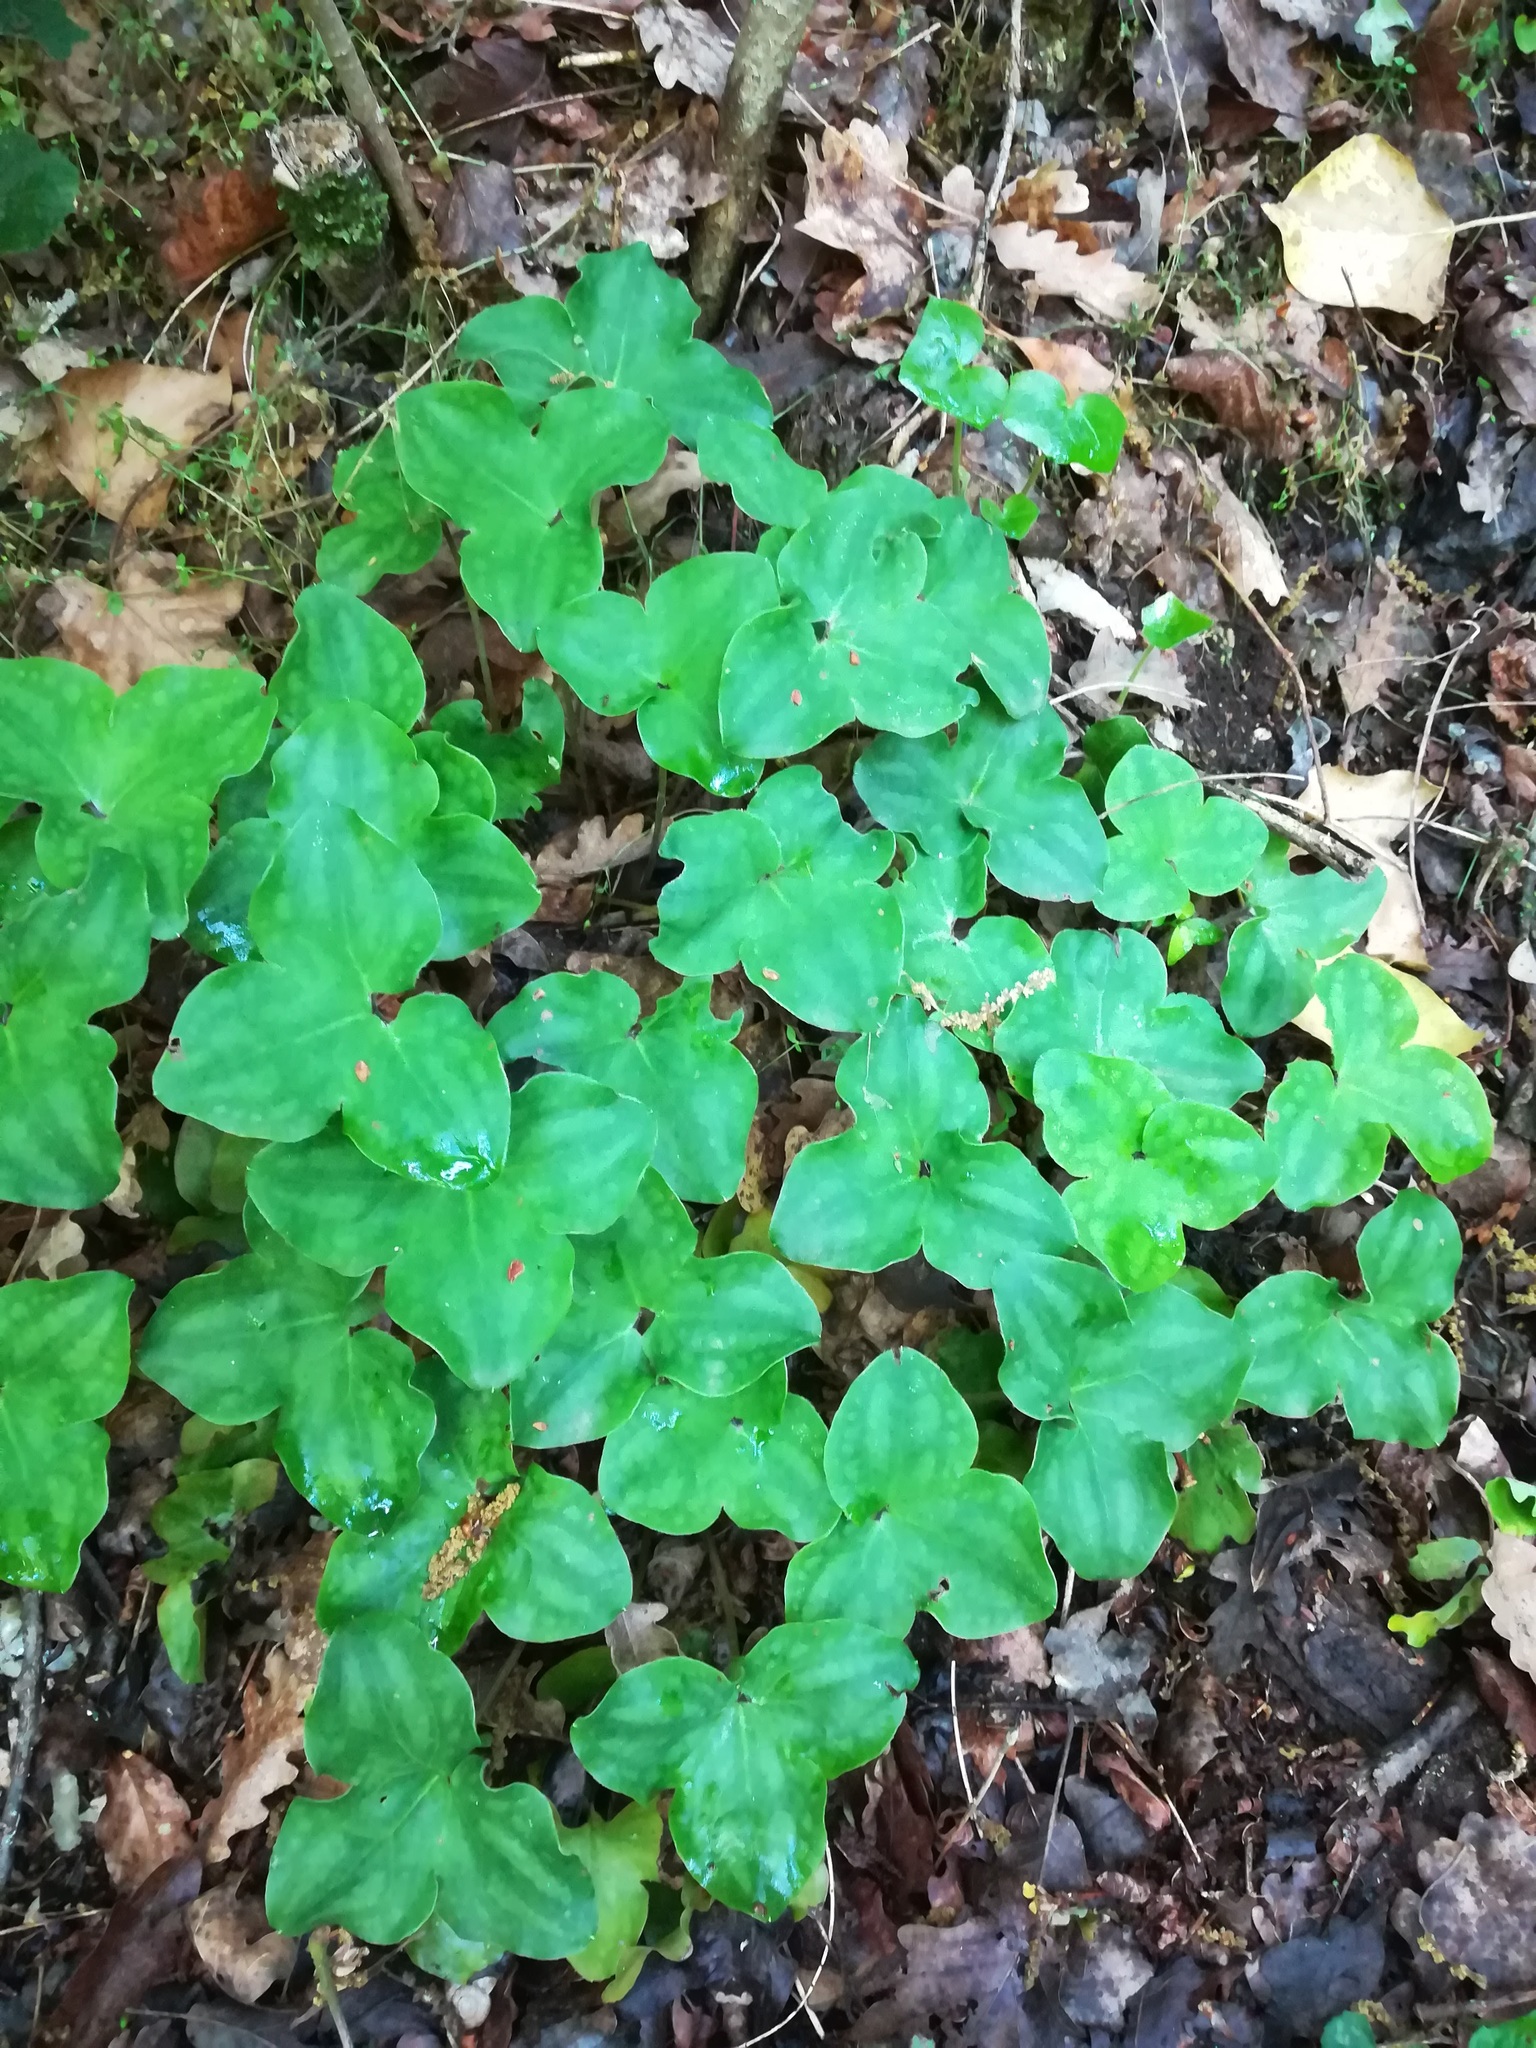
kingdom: Plantae
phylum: Tracheophyta
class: Magnoliopsida
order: Ranunculales
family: Ranunculaceae
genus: Hepatica
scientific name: Hepatica nobilis
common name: Liverleaf
